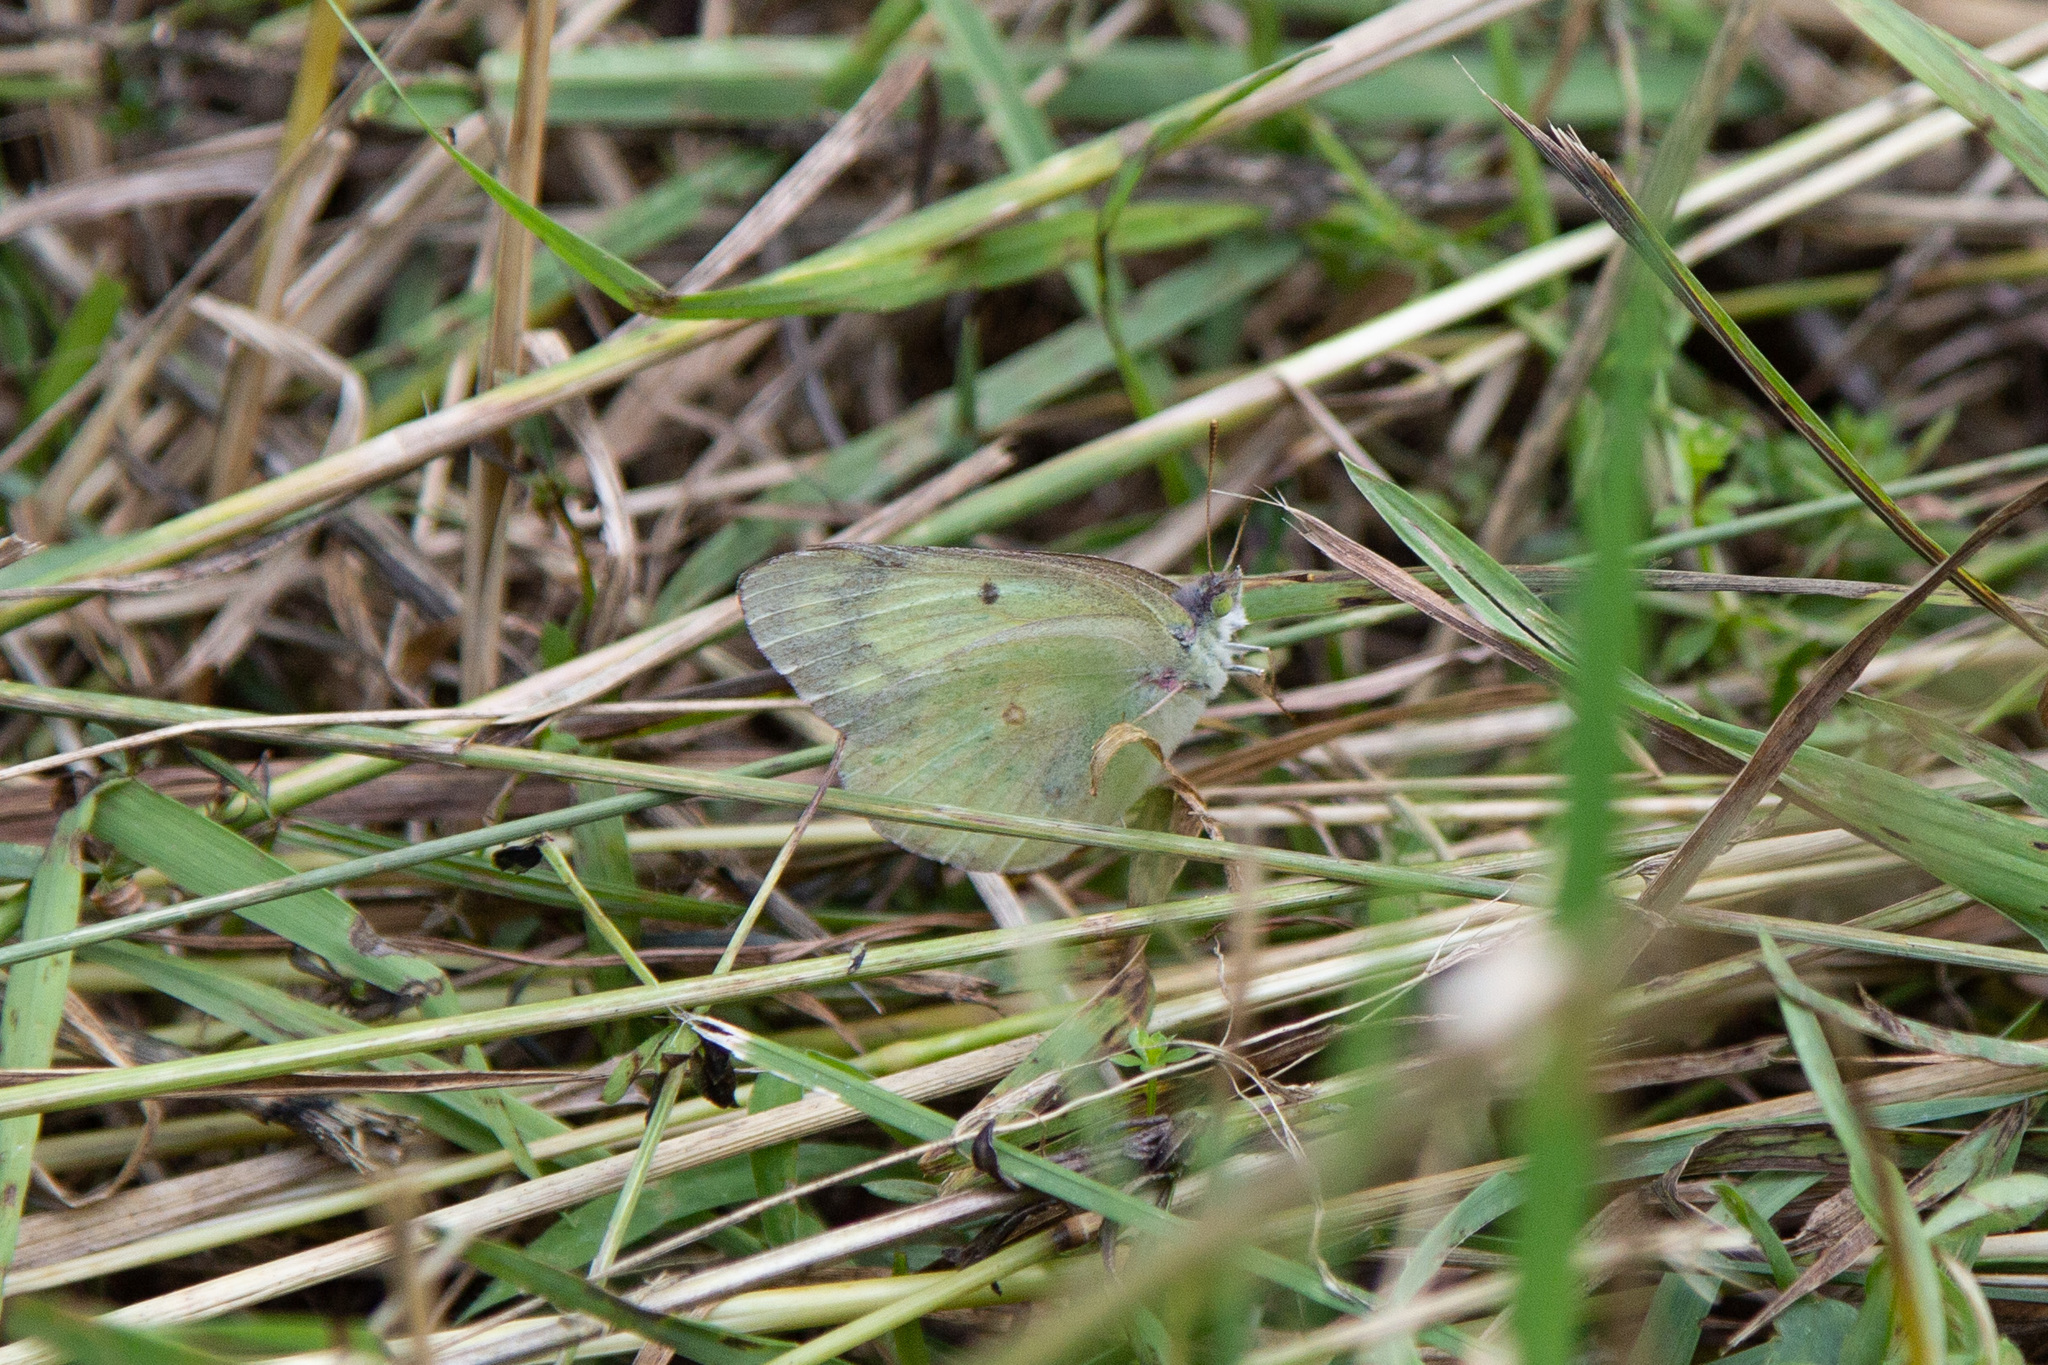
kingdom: Animalia
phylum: Arthropoda
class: Insecta
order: Lepidoptera
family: Pieridae
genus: Colias
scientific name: Colias philodice
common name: Clouded sulphur
